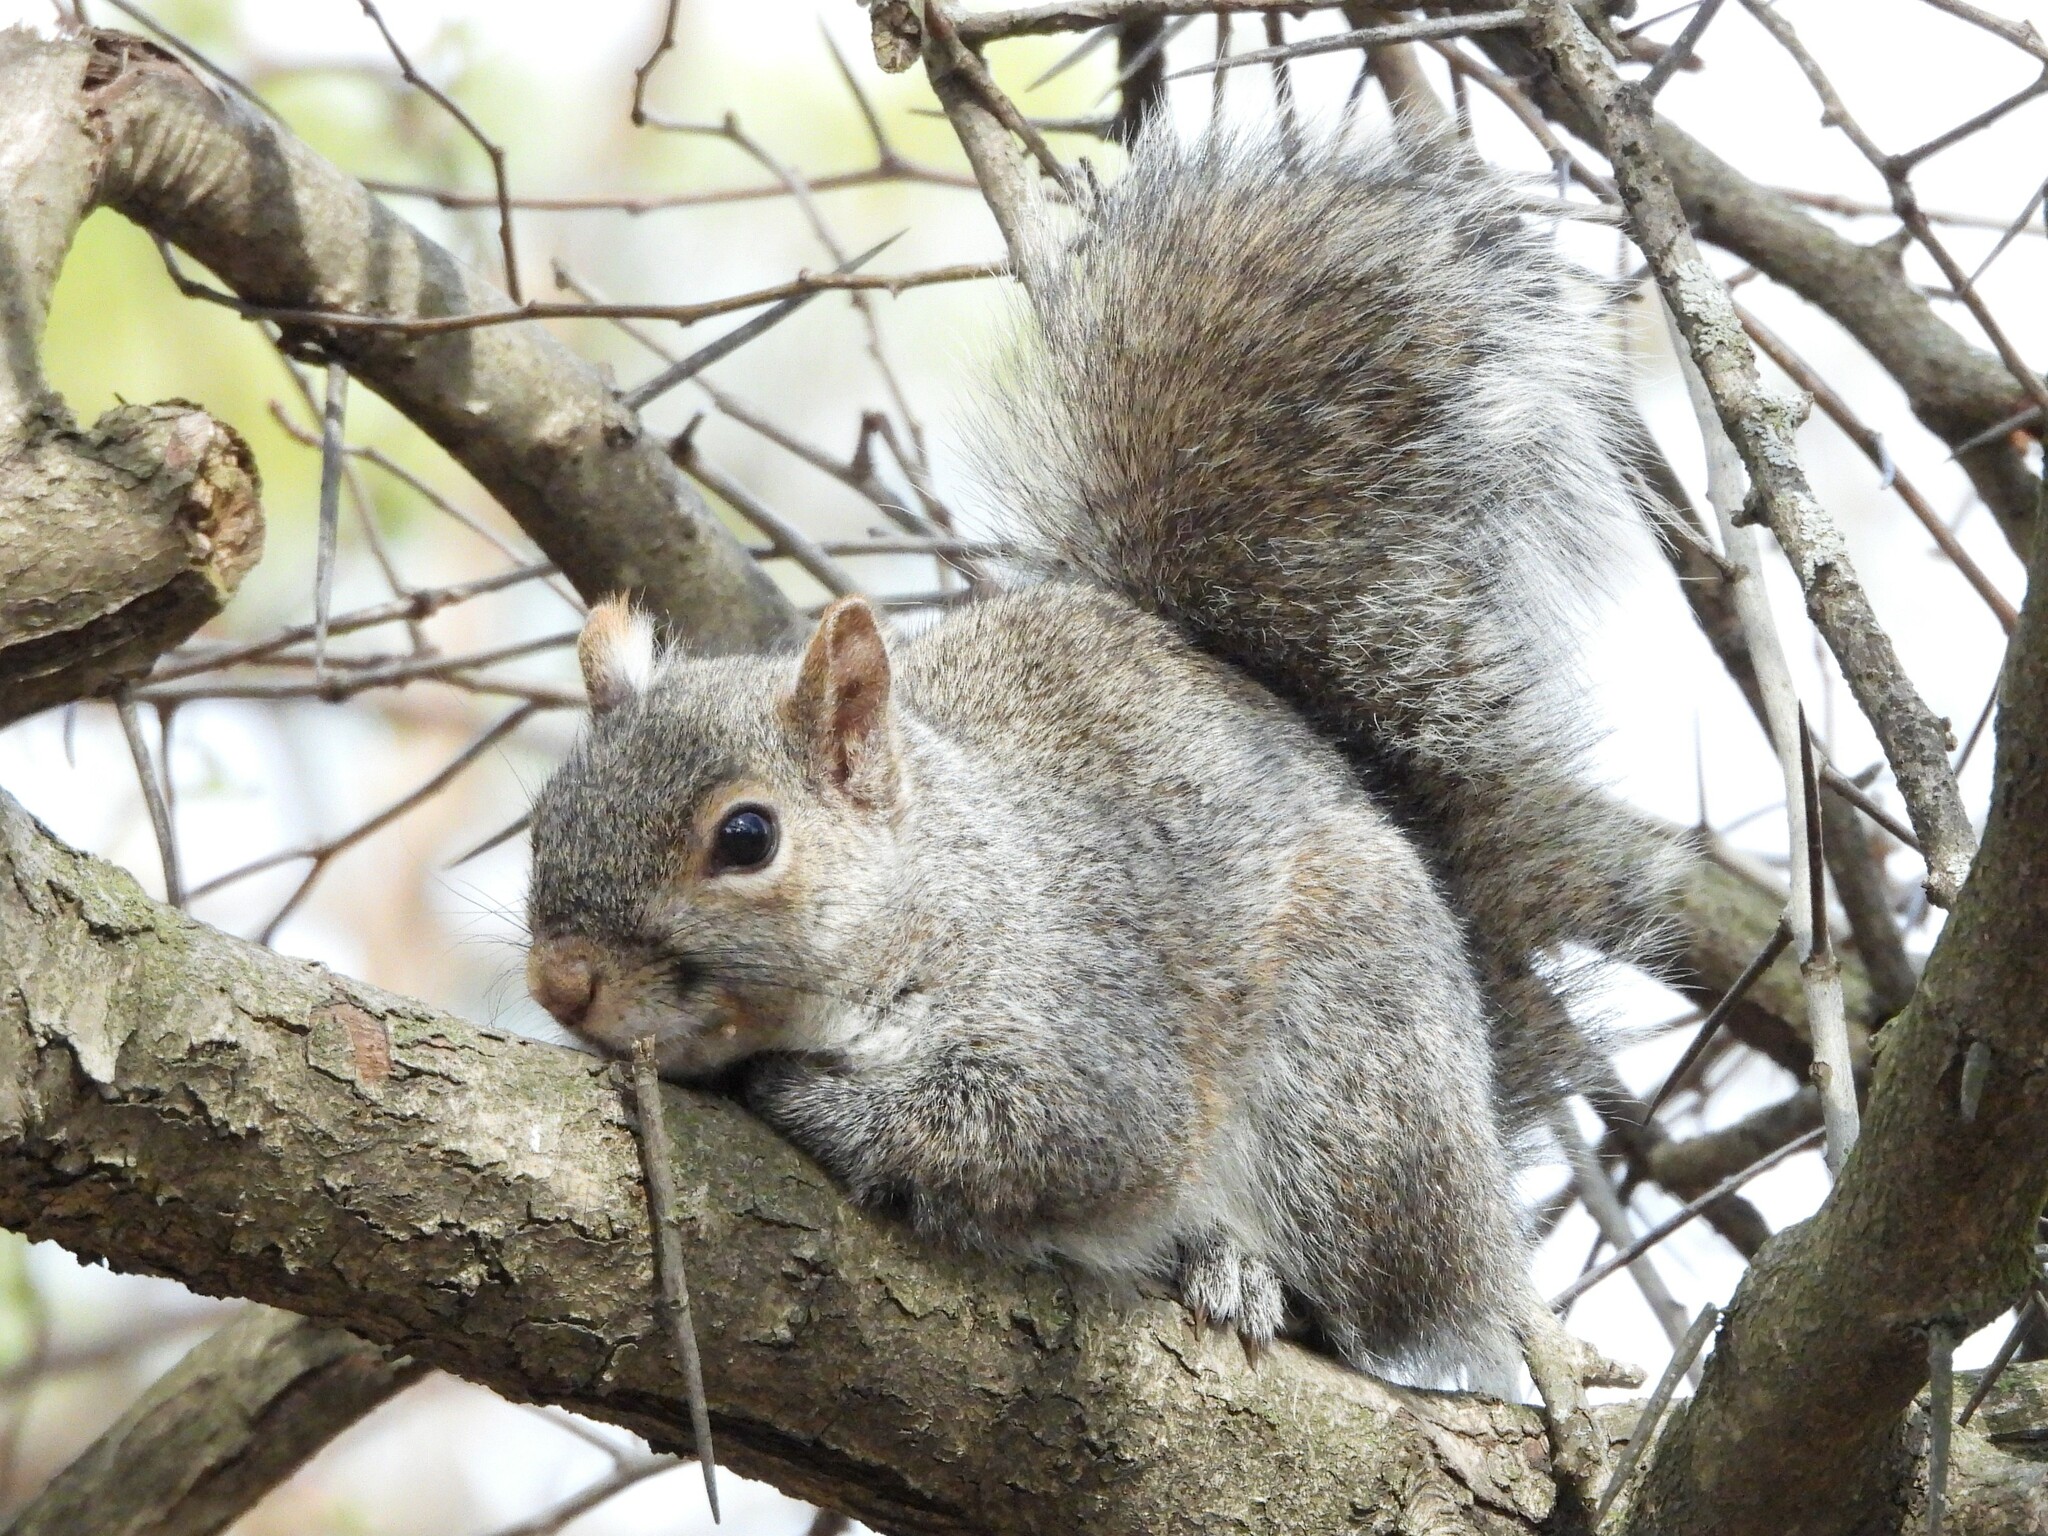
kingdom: Animalia
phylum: Chordata
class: Mammalia
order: Rodentia
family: Sciuridae
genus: Sciurus
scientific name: Sciurus carolinensis
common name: Eastern gray squirrel
